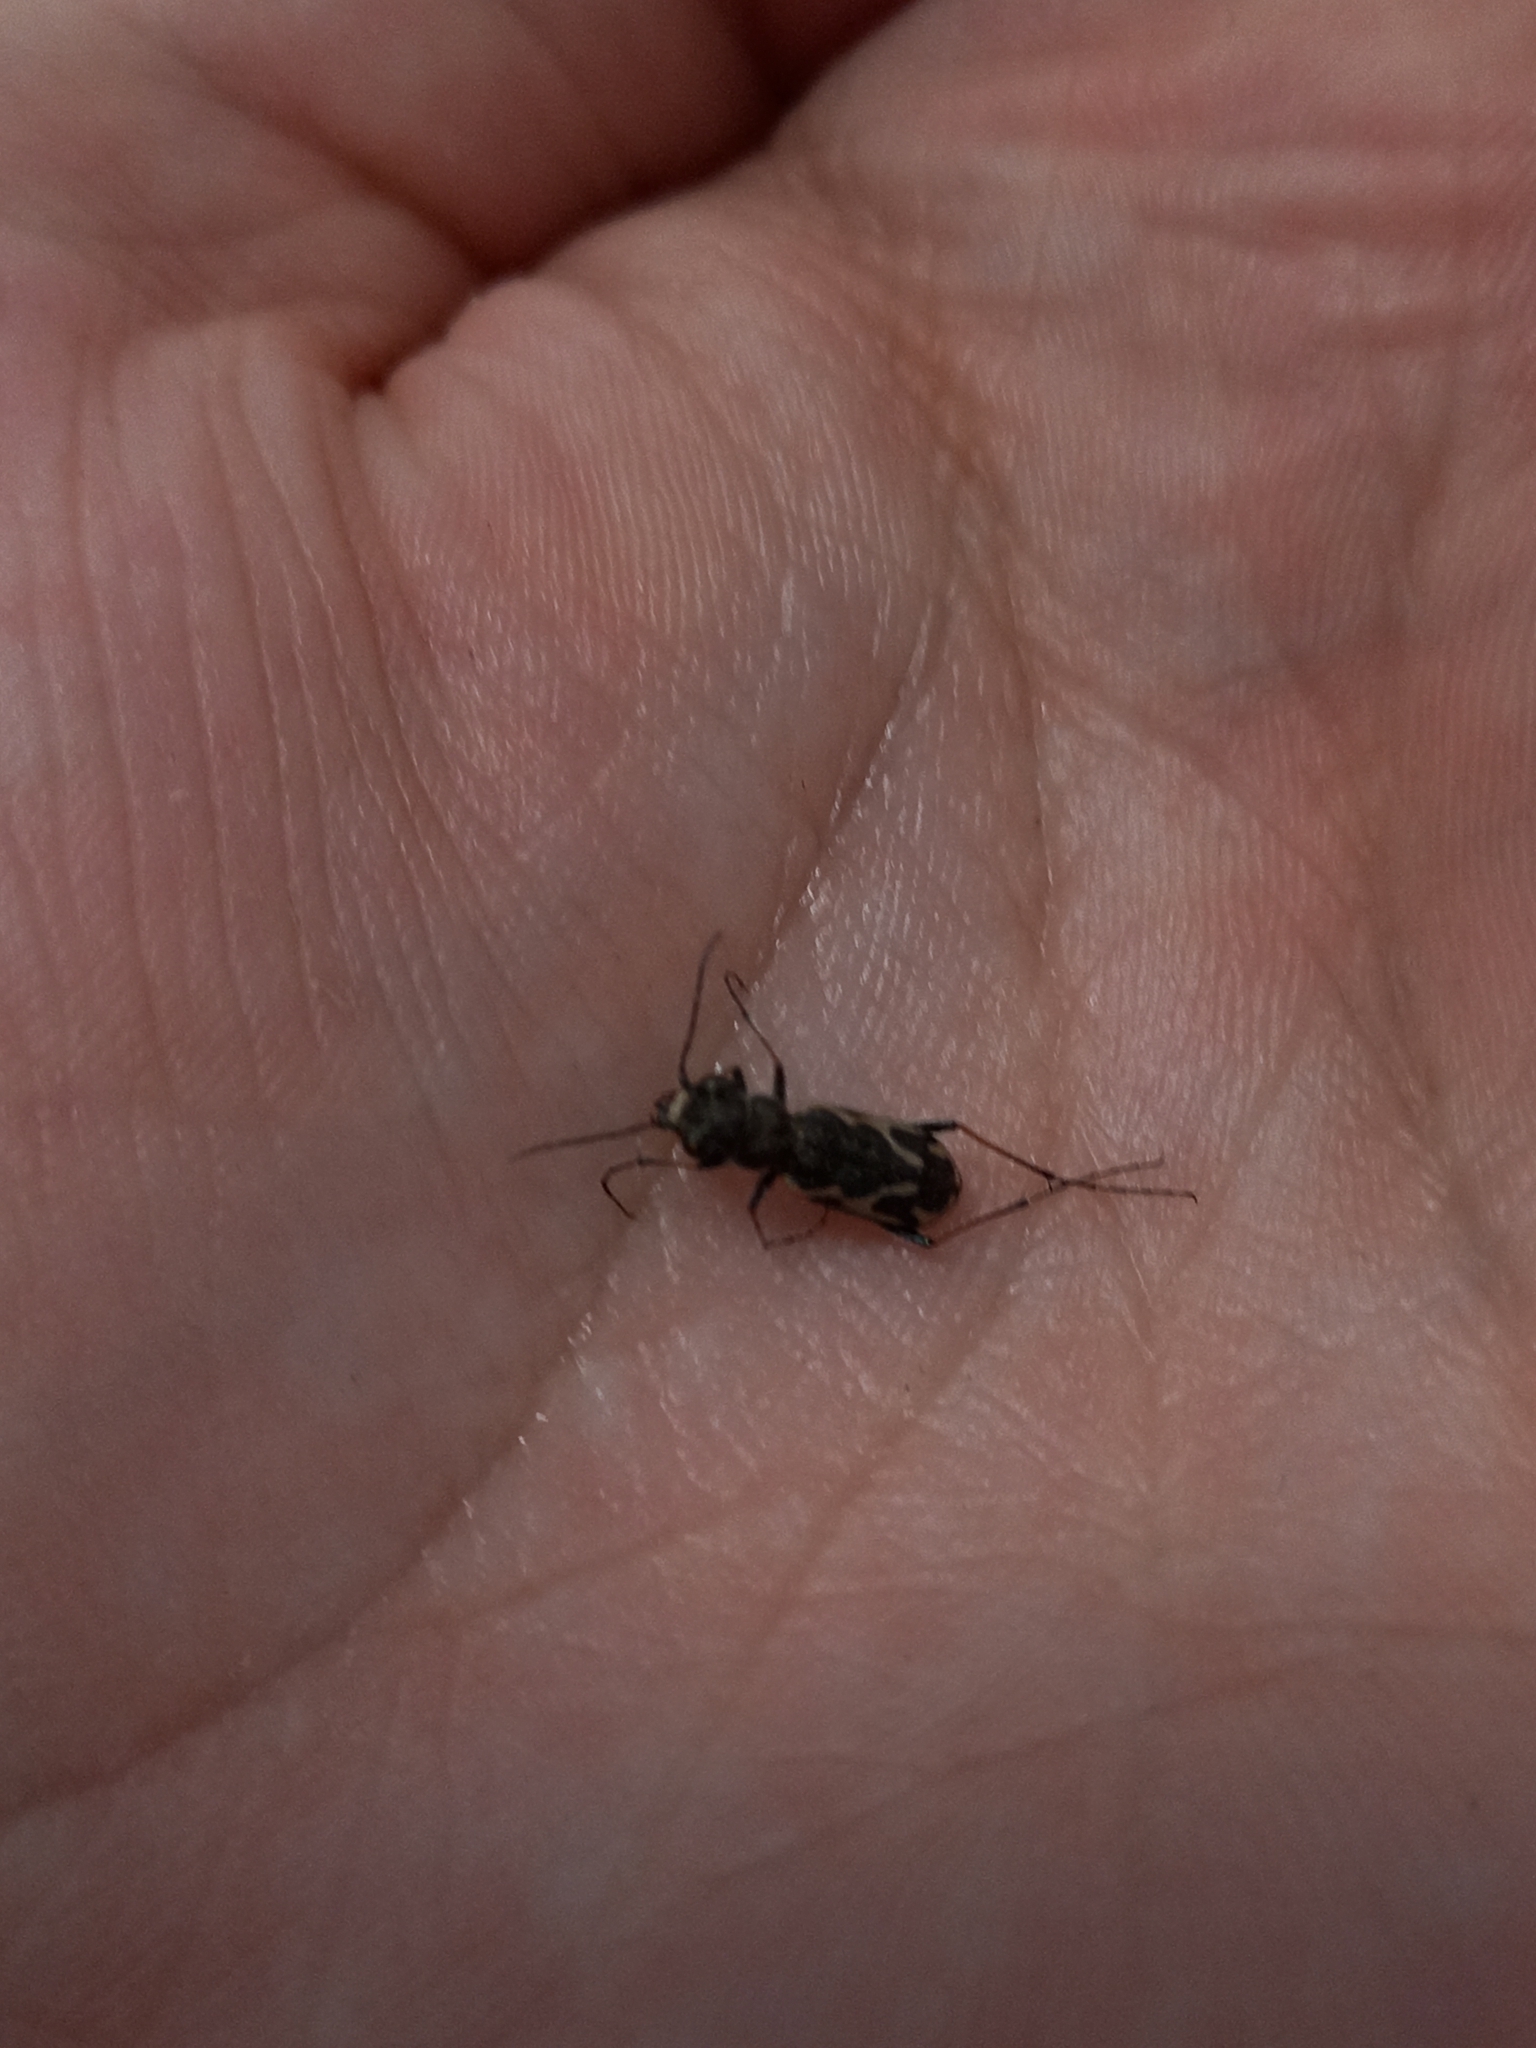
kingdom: Animalia
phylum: Arthropoda
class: Insecta
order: Coleoptera
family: Carabidae
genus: Neocicindela
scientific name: Neocicindela dunedensis
